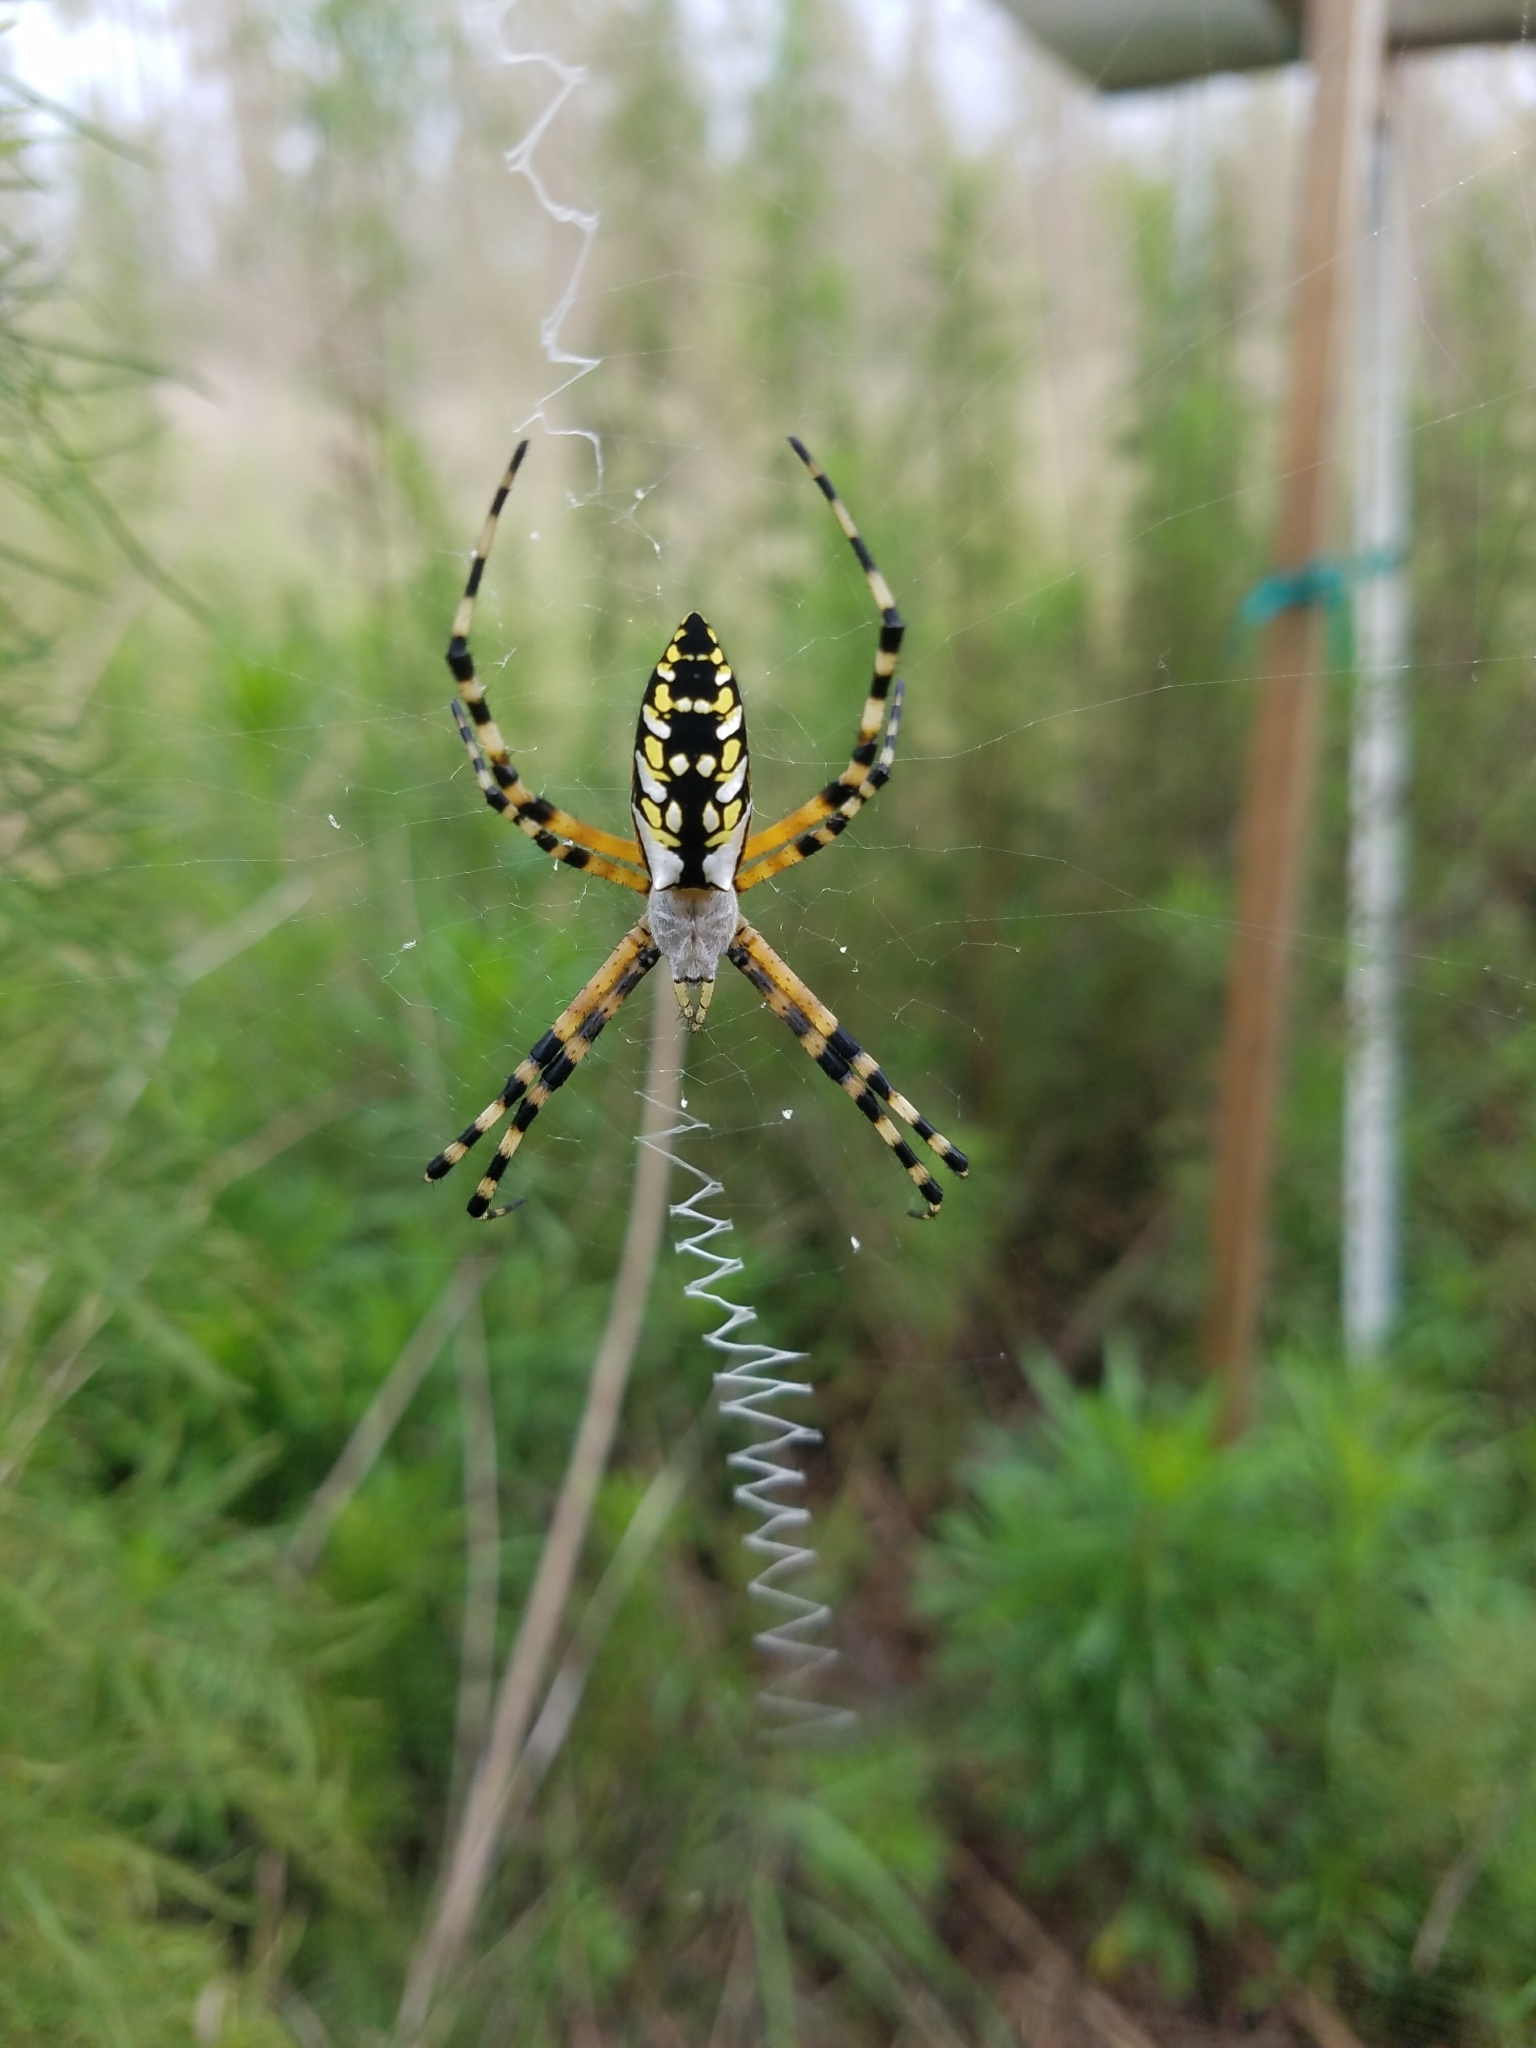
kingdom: Animalia
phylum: Arthropoda
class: Arachnida
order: Araneae
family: Araneidae
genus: Argiope
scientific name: Argiope aurantia
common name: Orb weavers
